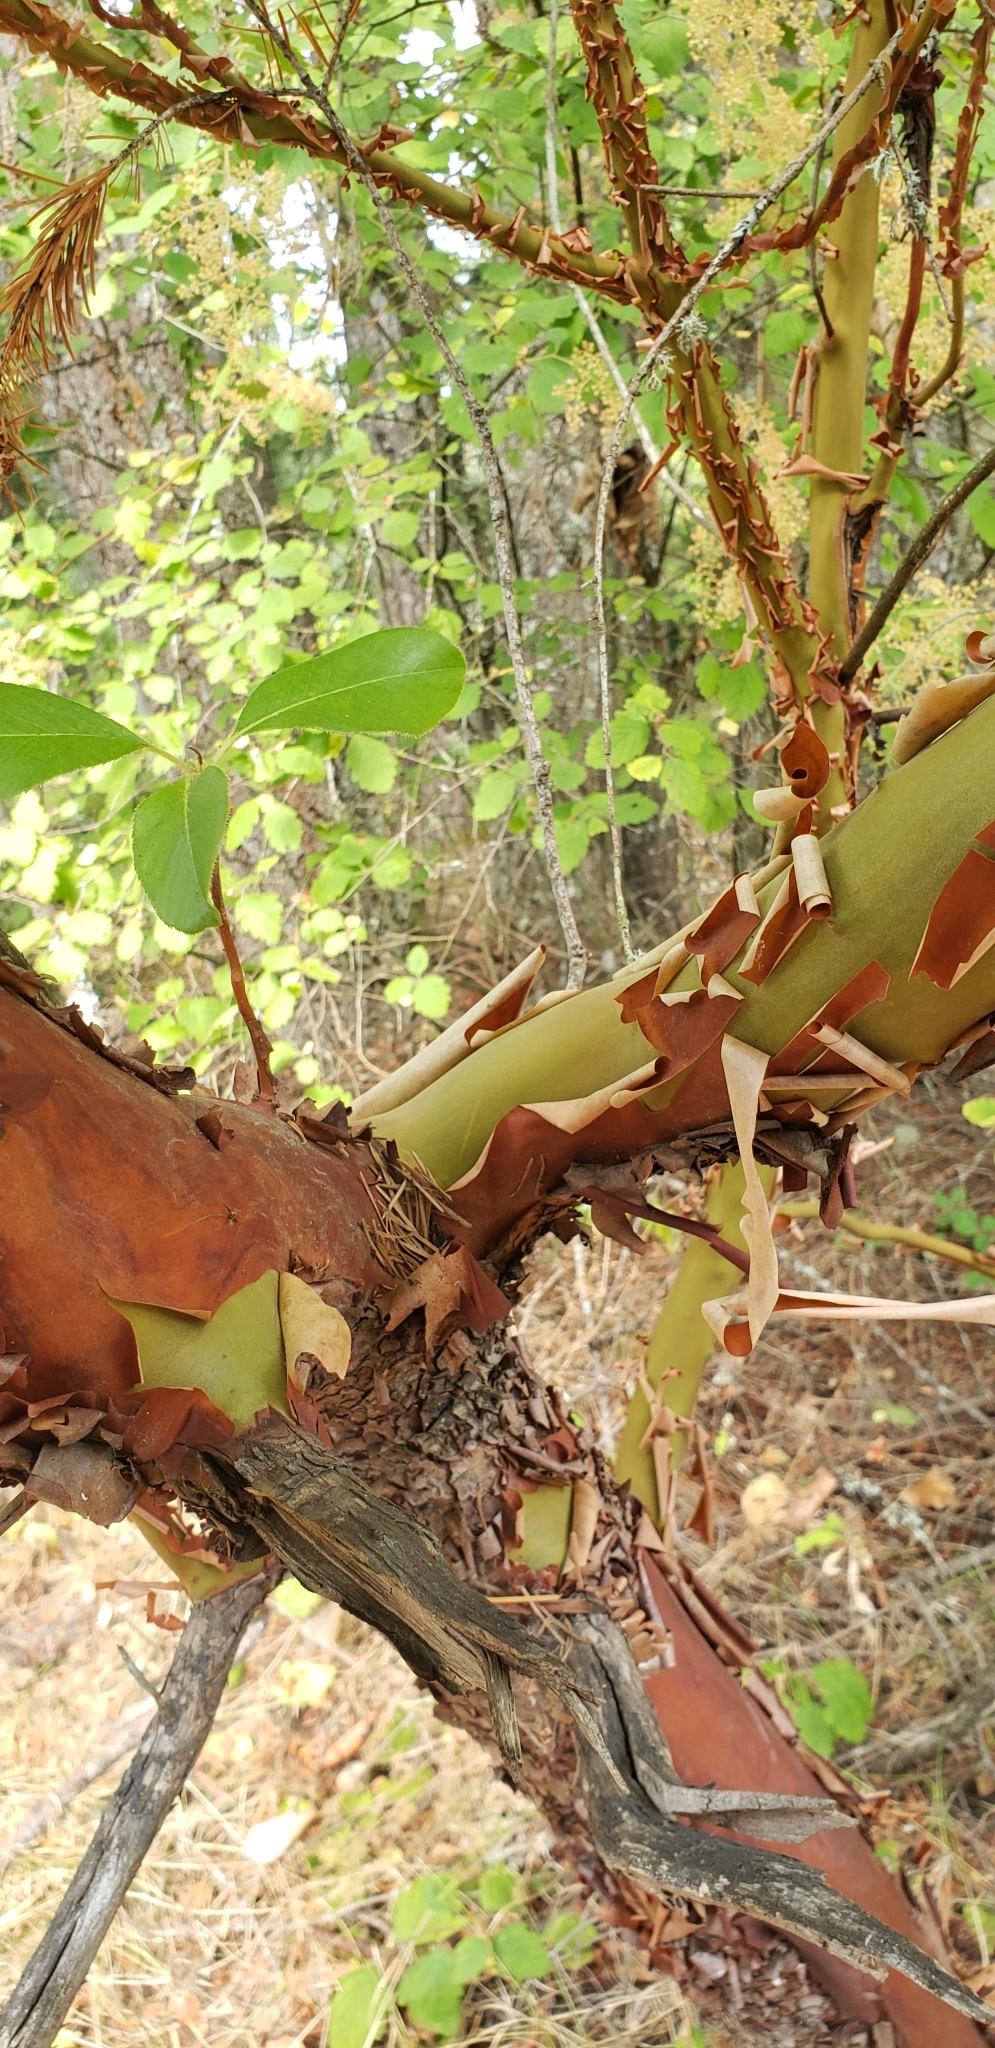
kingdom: Plantae
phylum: Tracheophyta
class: Magnoliopsida
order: Ericales
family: Ericaceae
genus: Arbutus
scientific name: Arbutus menziesii
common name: Pacific madrone
